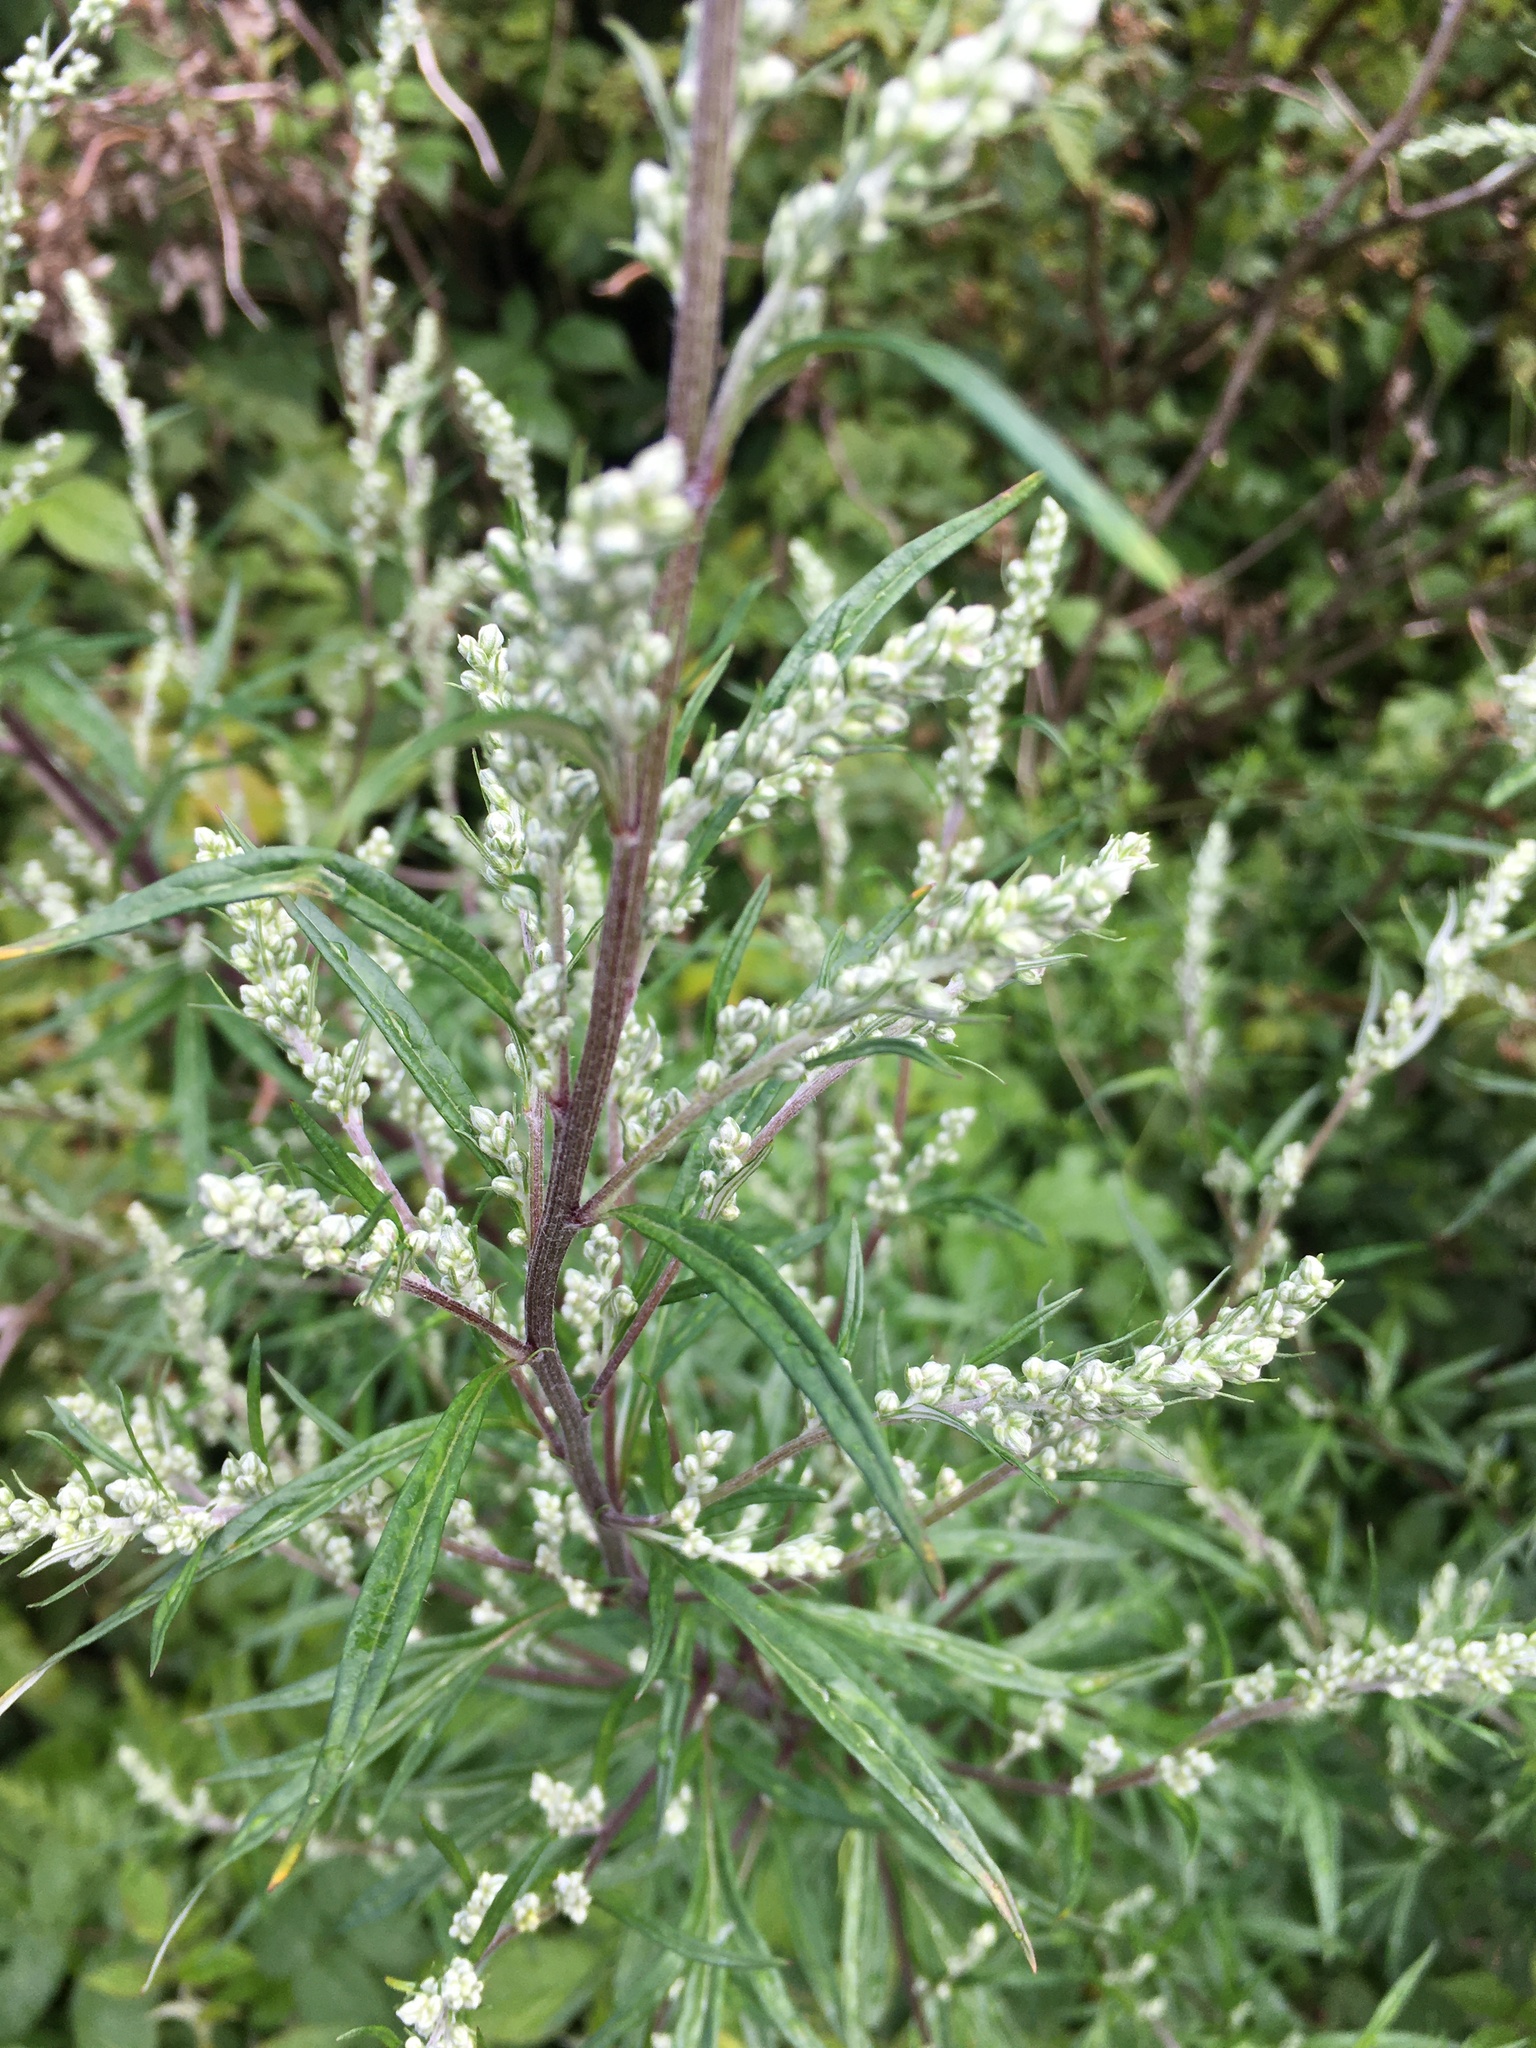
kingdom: Plantae
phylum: Tracheophyta
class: Magnoliopsida
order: Asterales
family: Asteraceae
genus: Artemisia
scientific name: Artemisia vulgaris
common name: Mugwort
